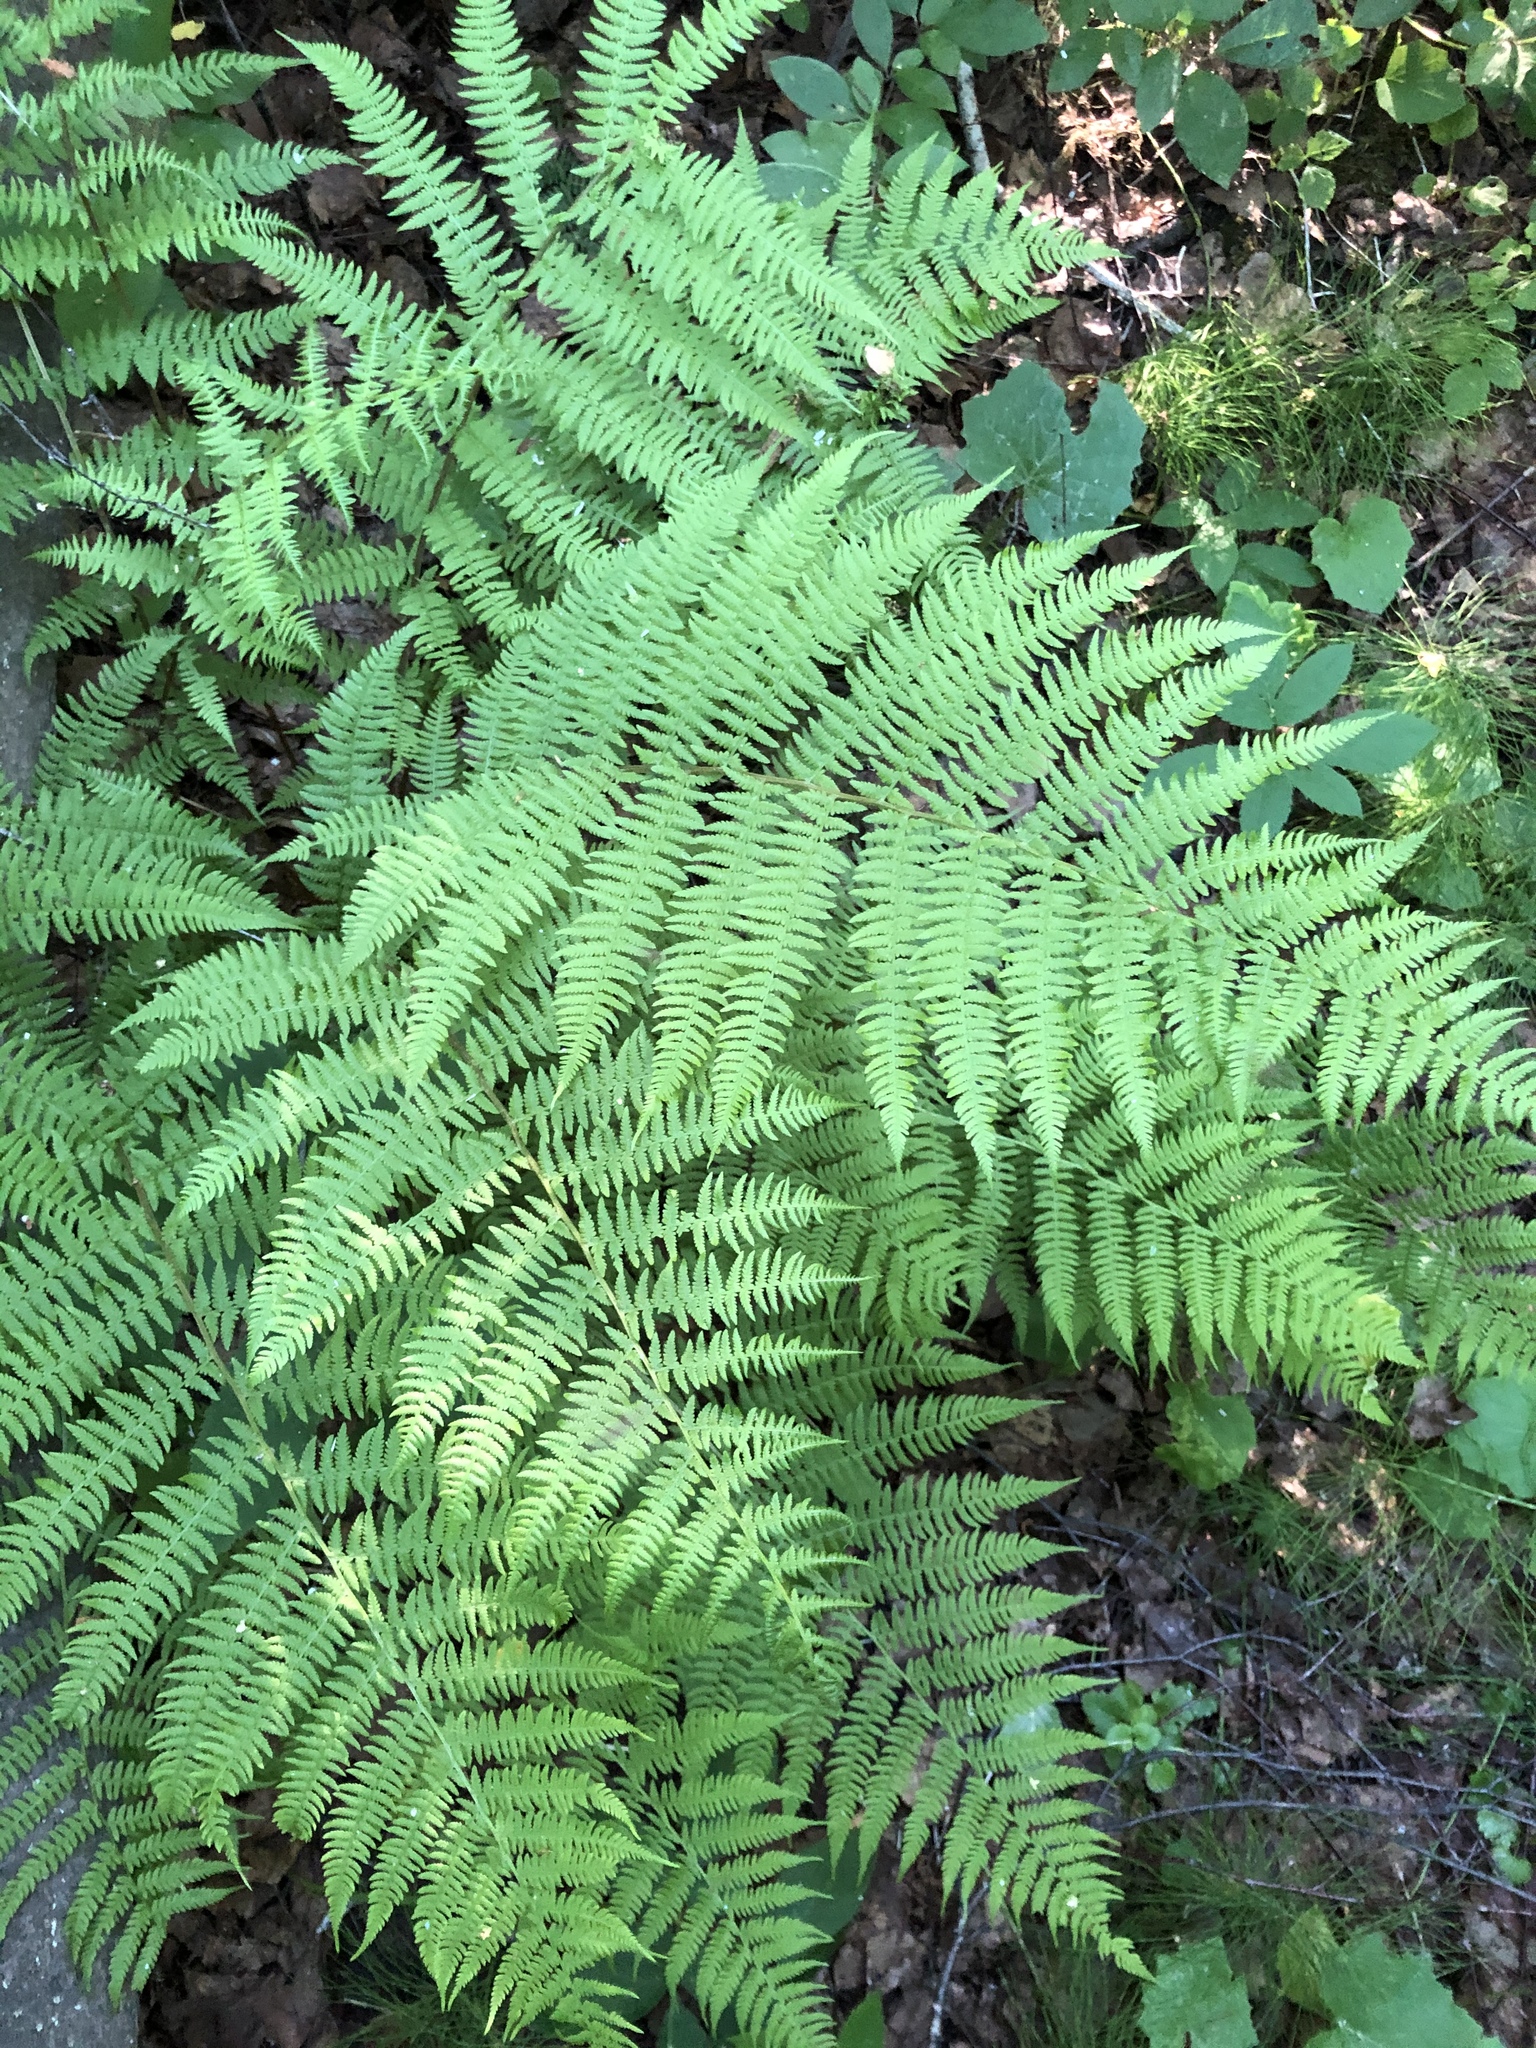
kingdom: Plantae
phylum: Tracheophyta
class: Polypodiopsida
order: Polypodiales
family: Athyriaceae
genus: Athyrium
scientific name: Athyrium filix-femina
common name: Lady fern
